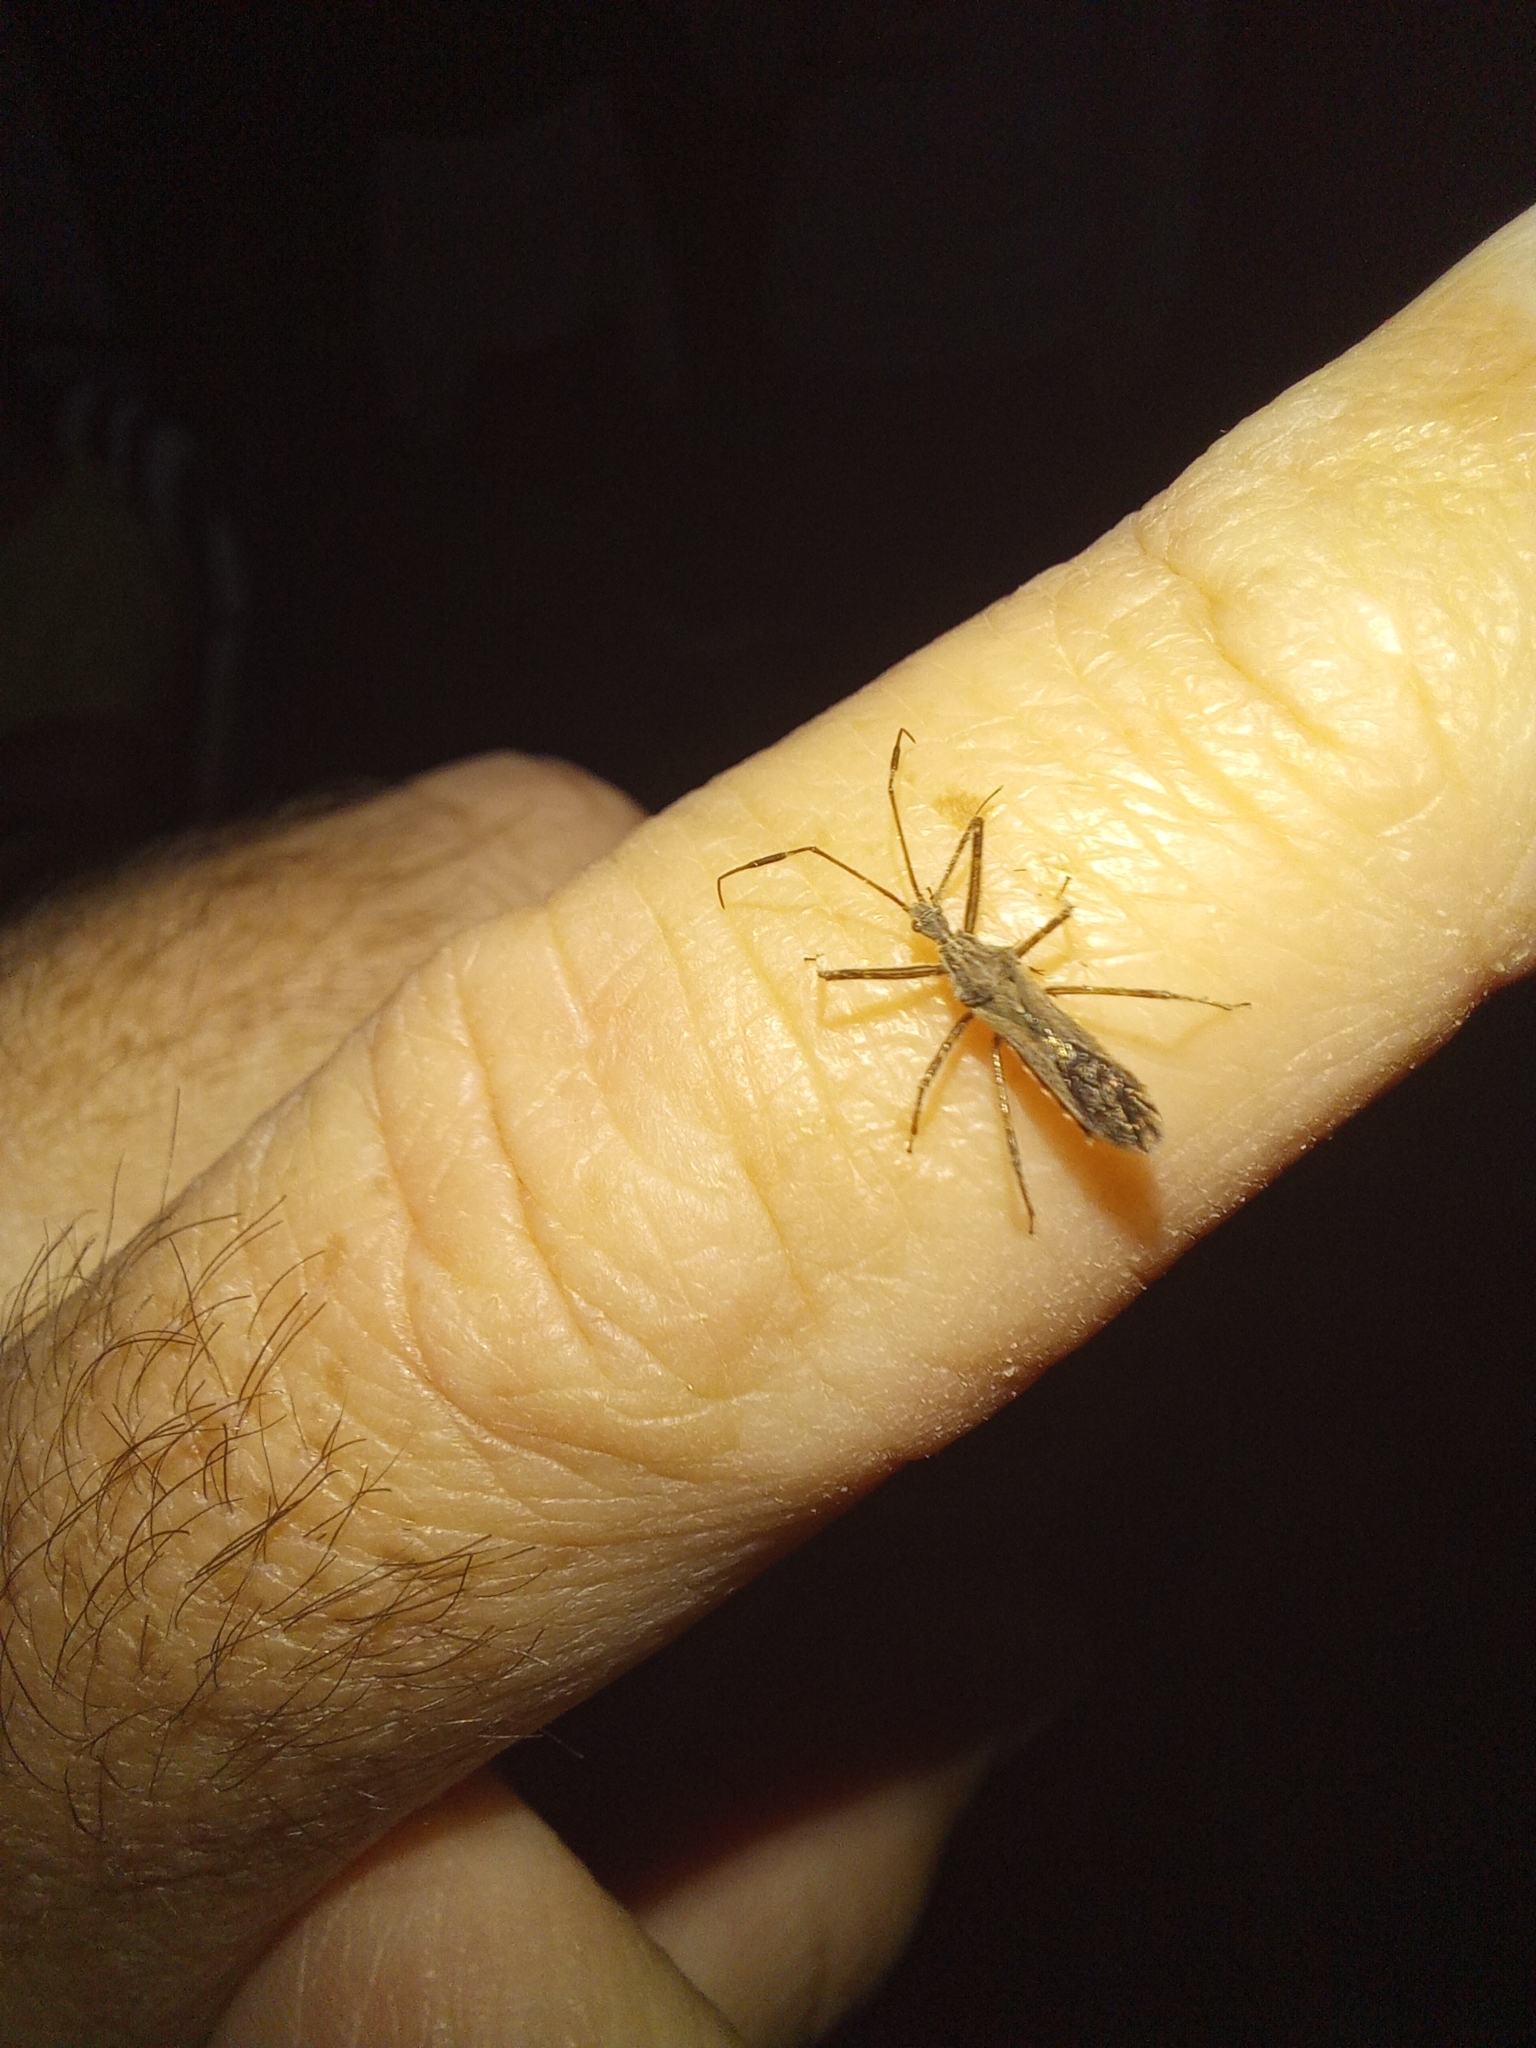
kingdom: Animalia
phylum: Arthropoda
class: Insecta
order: Hemiptera
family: Reduviidae
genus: Atrachelus
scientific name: Atrachelus cinereus
